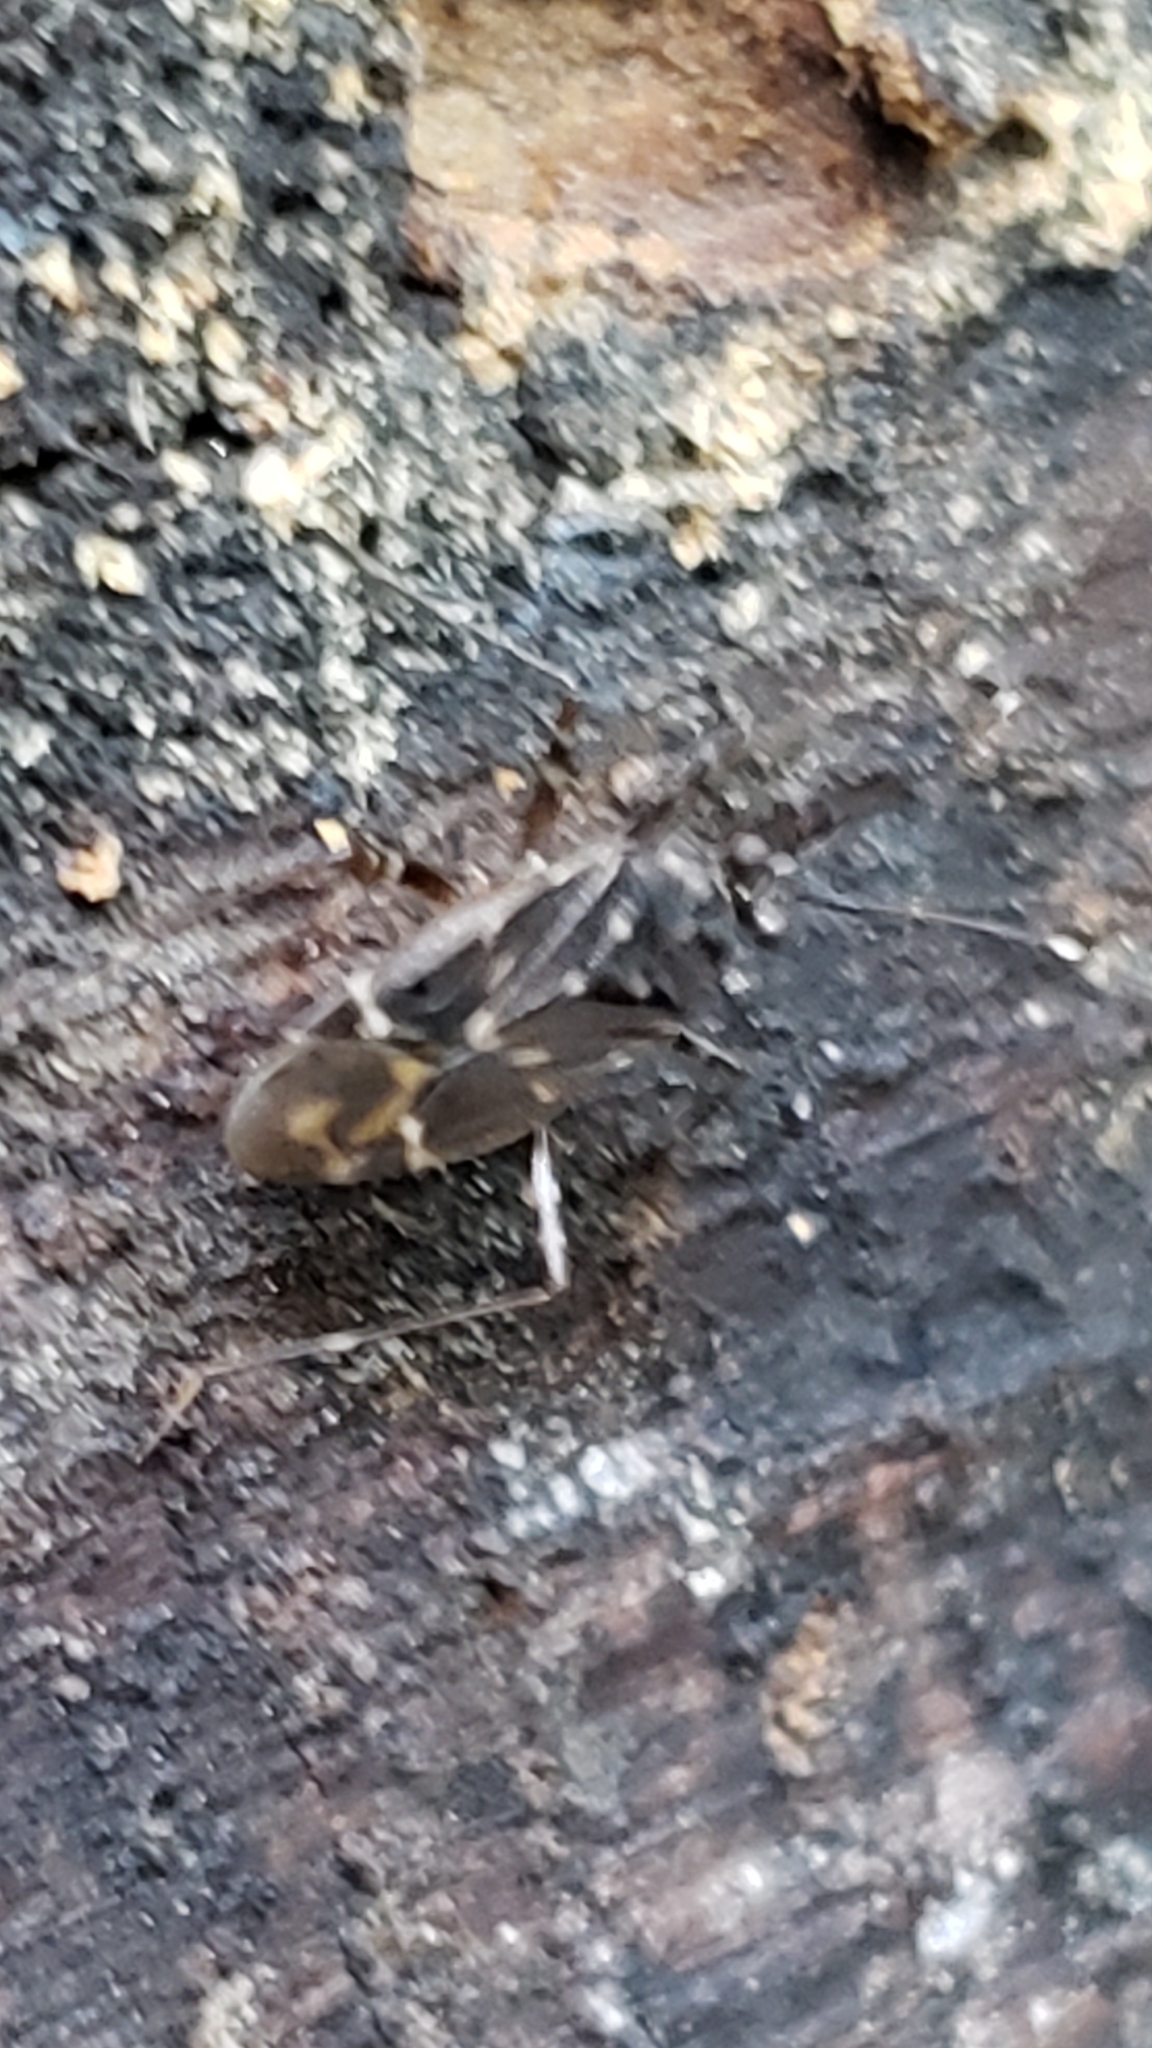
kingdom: Animalia
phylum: Arthropoda
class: Insecta
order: Hemiptera
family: Miridae
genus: Cylapus
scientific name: Cylapus tenuicornis
